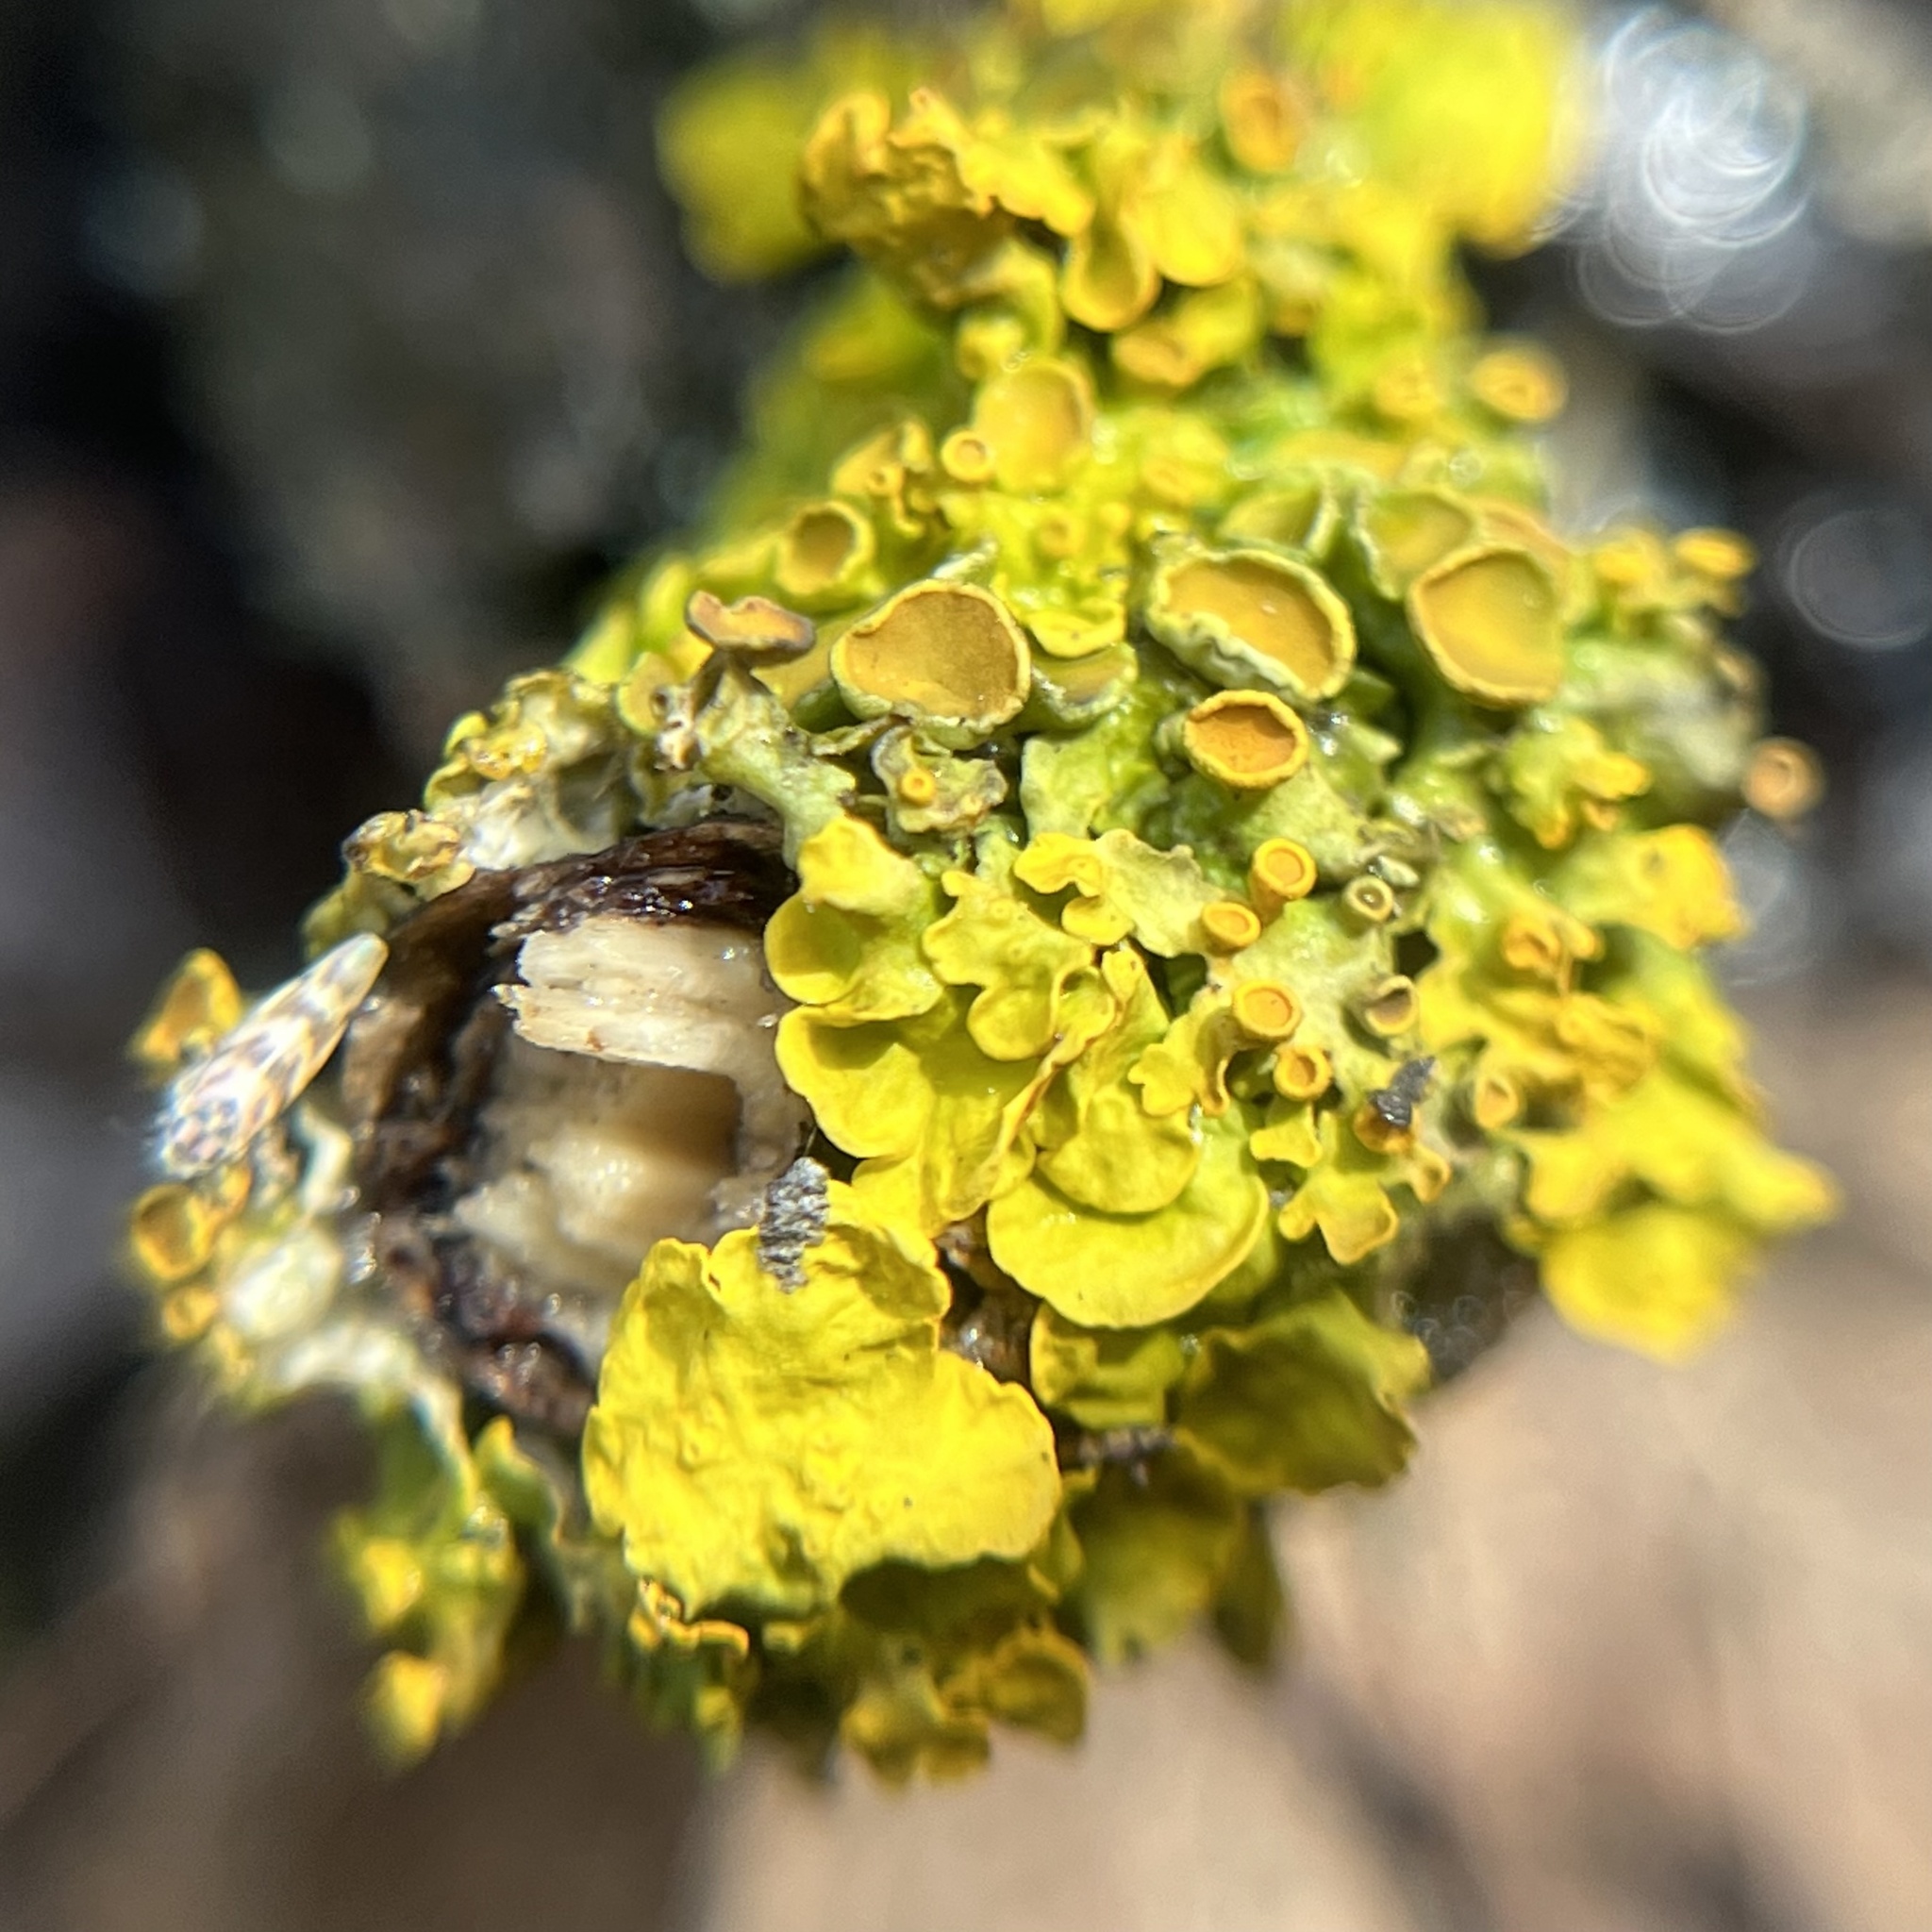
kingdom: Fungi
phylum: Ascomycota
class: Lecanoromycetes
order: Teloschistales
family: Teloschistaceae
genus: Xanthoria
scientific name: Xanthoria parietina
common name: Common orange lichen
